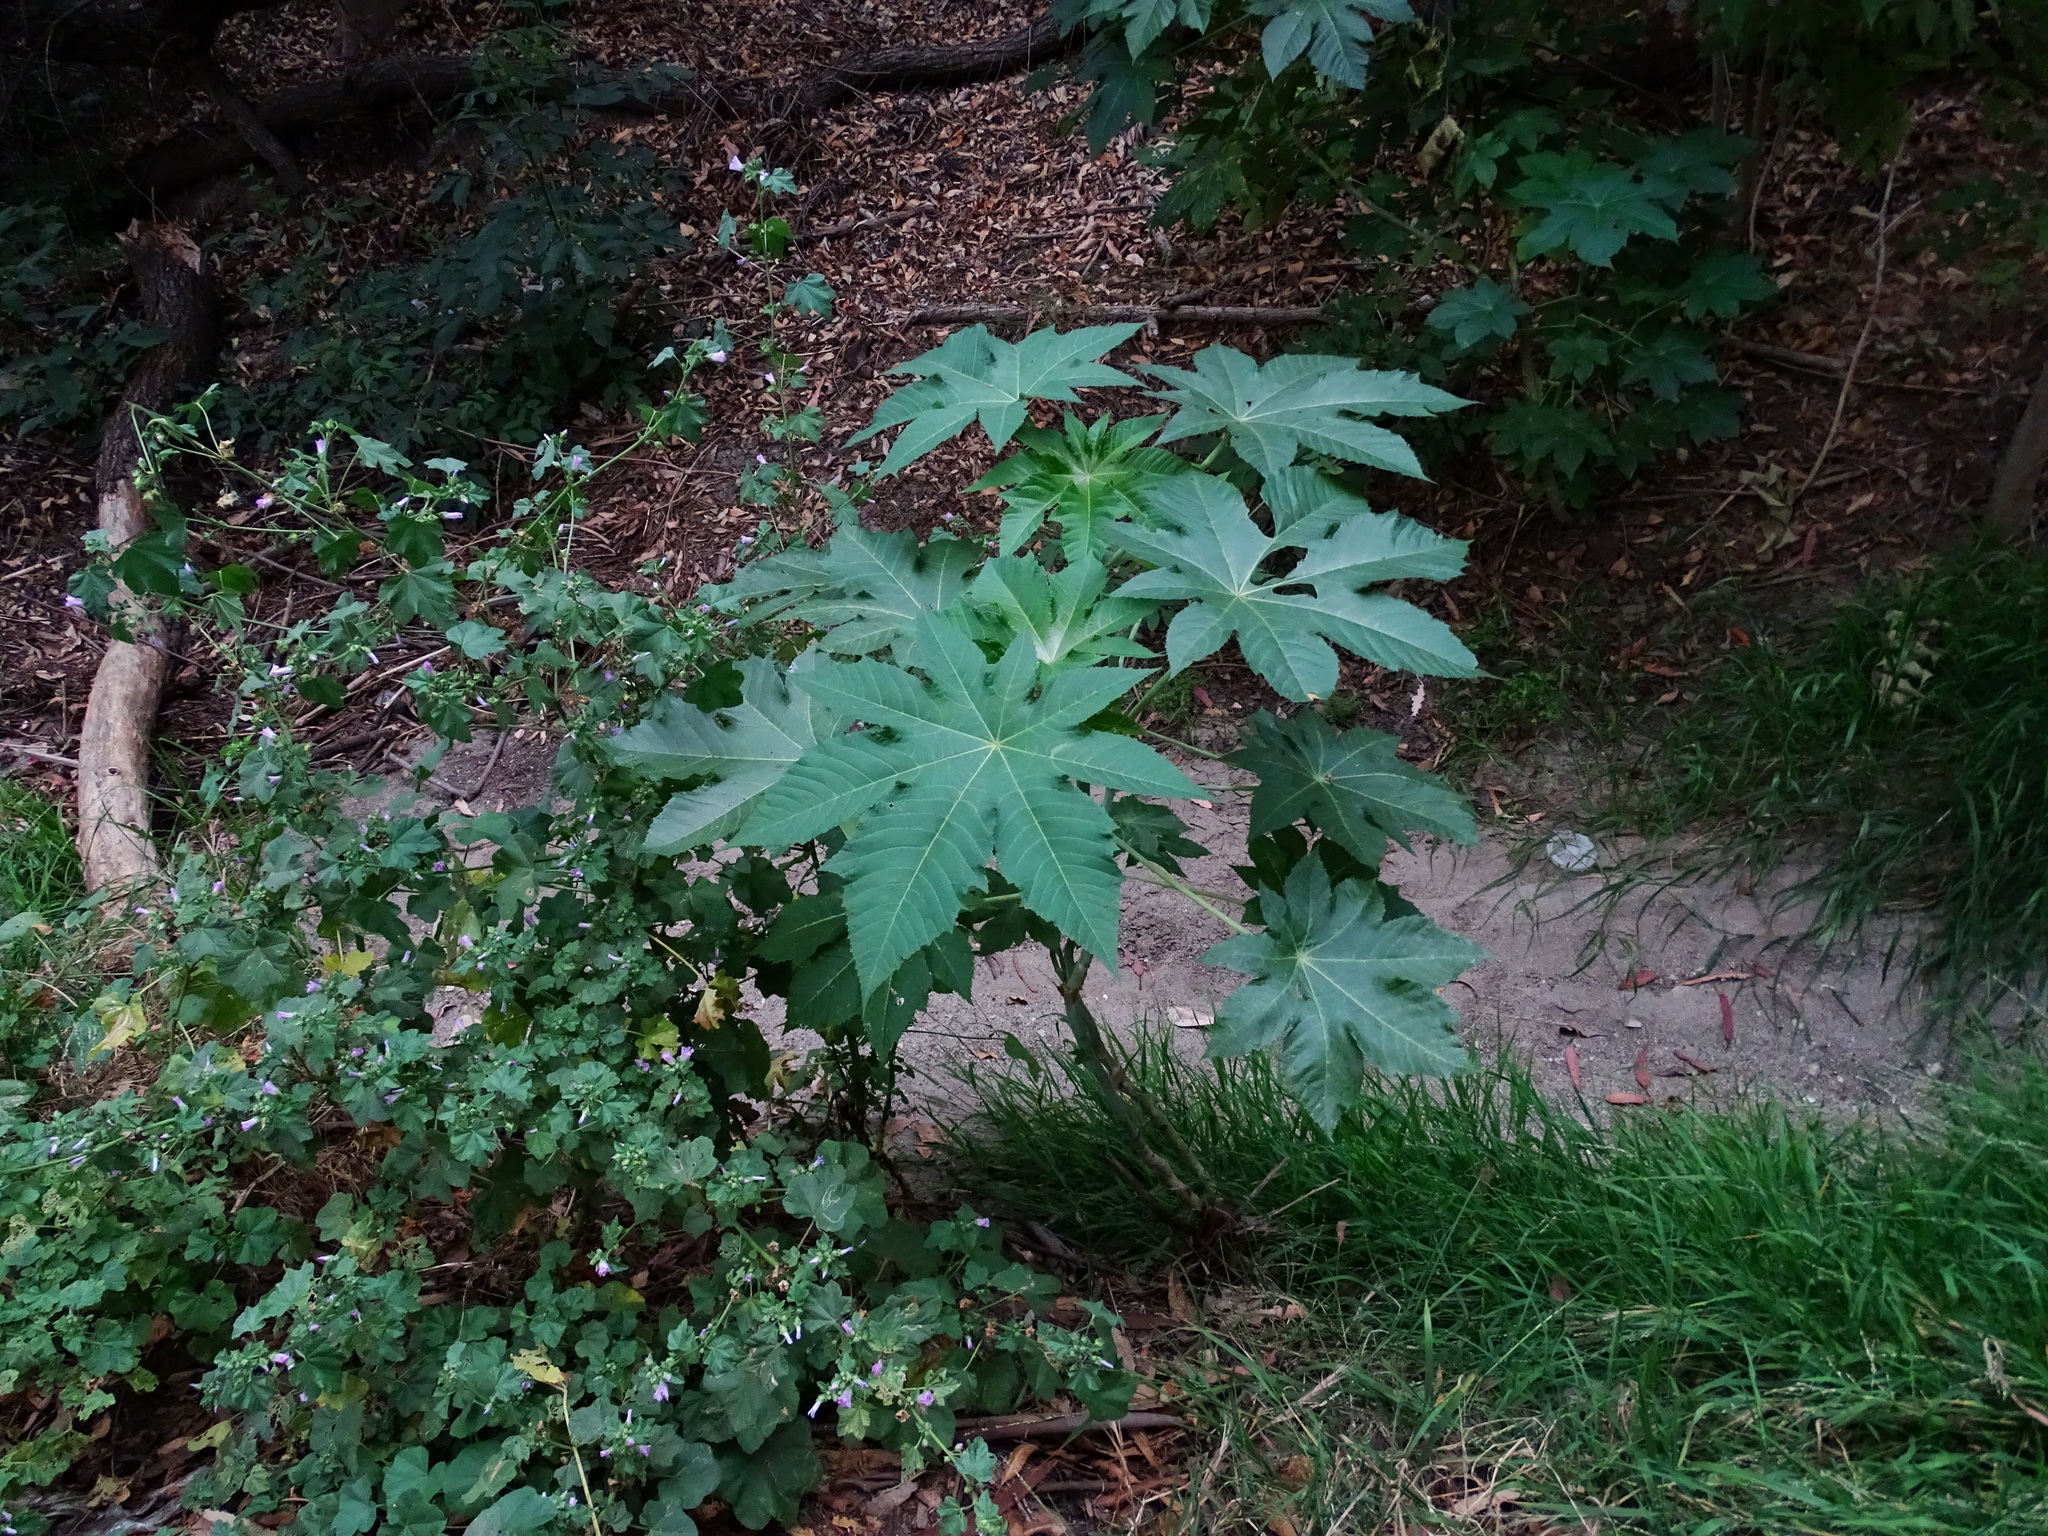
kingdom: Plantae
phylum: Tracheophyta
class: Magnoliopsida
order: Malpighiales
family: Euphorbiaceae
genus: Ricinus
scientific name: Ricinus communis
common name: Castor-oil-plant
